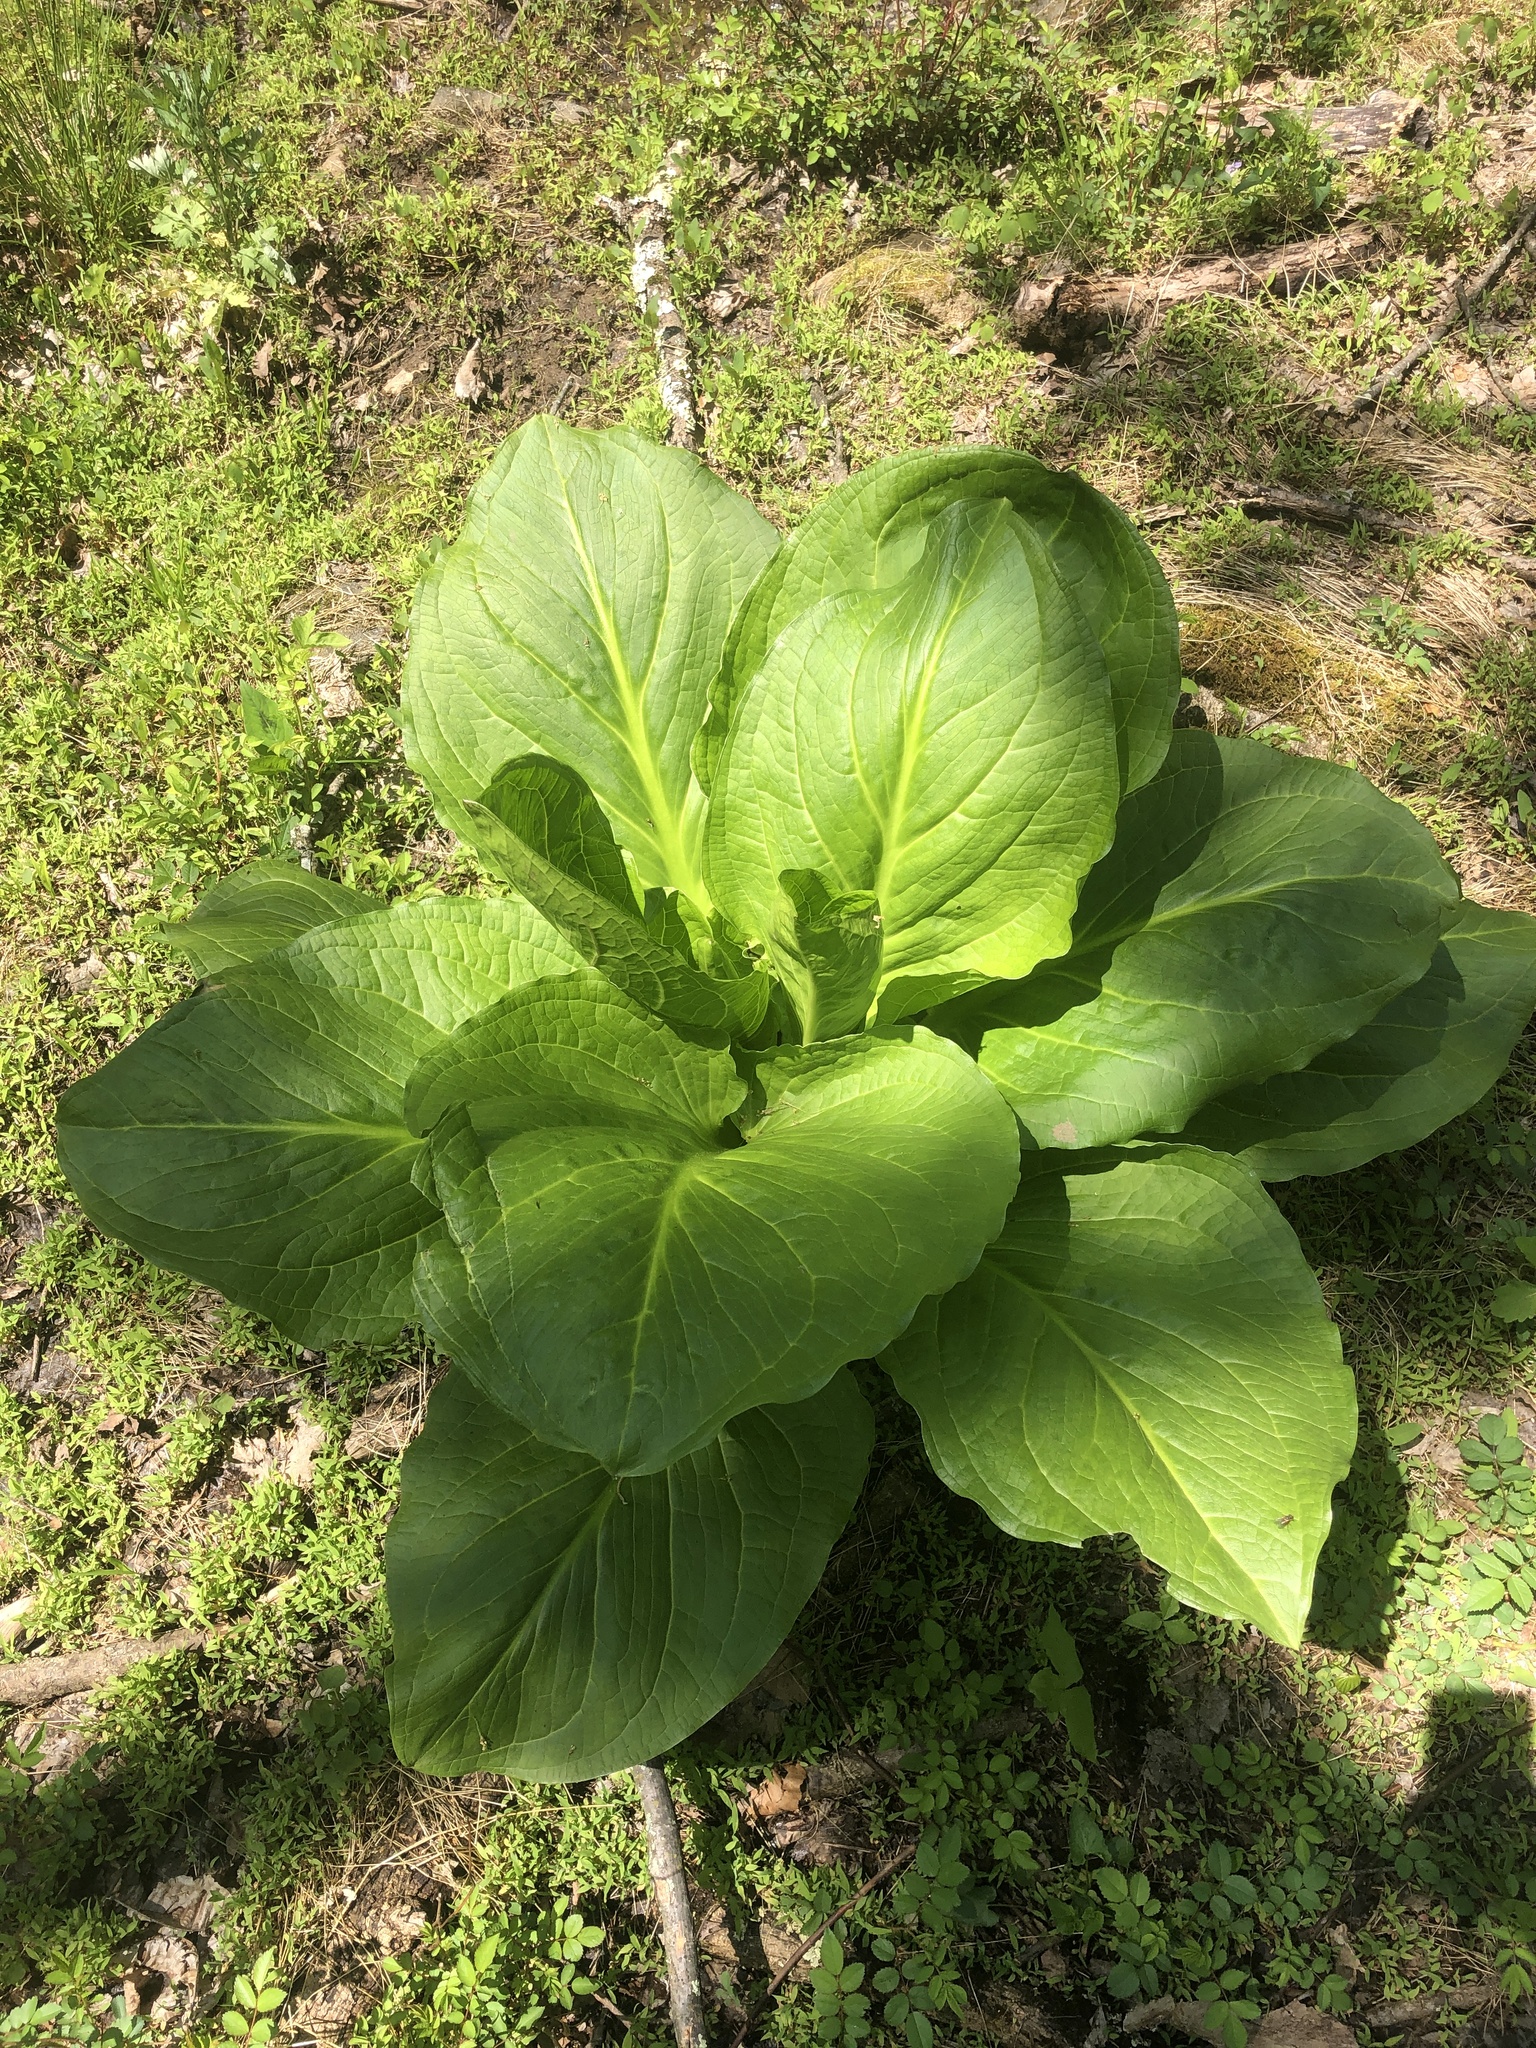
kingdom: Plantae
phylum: Tracheophyta
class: Liliopsida
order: Alismatales
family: Araceae
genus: Symplocarpus
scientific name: Symplocarpus foetidus
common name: Eastern skunk cabbage
